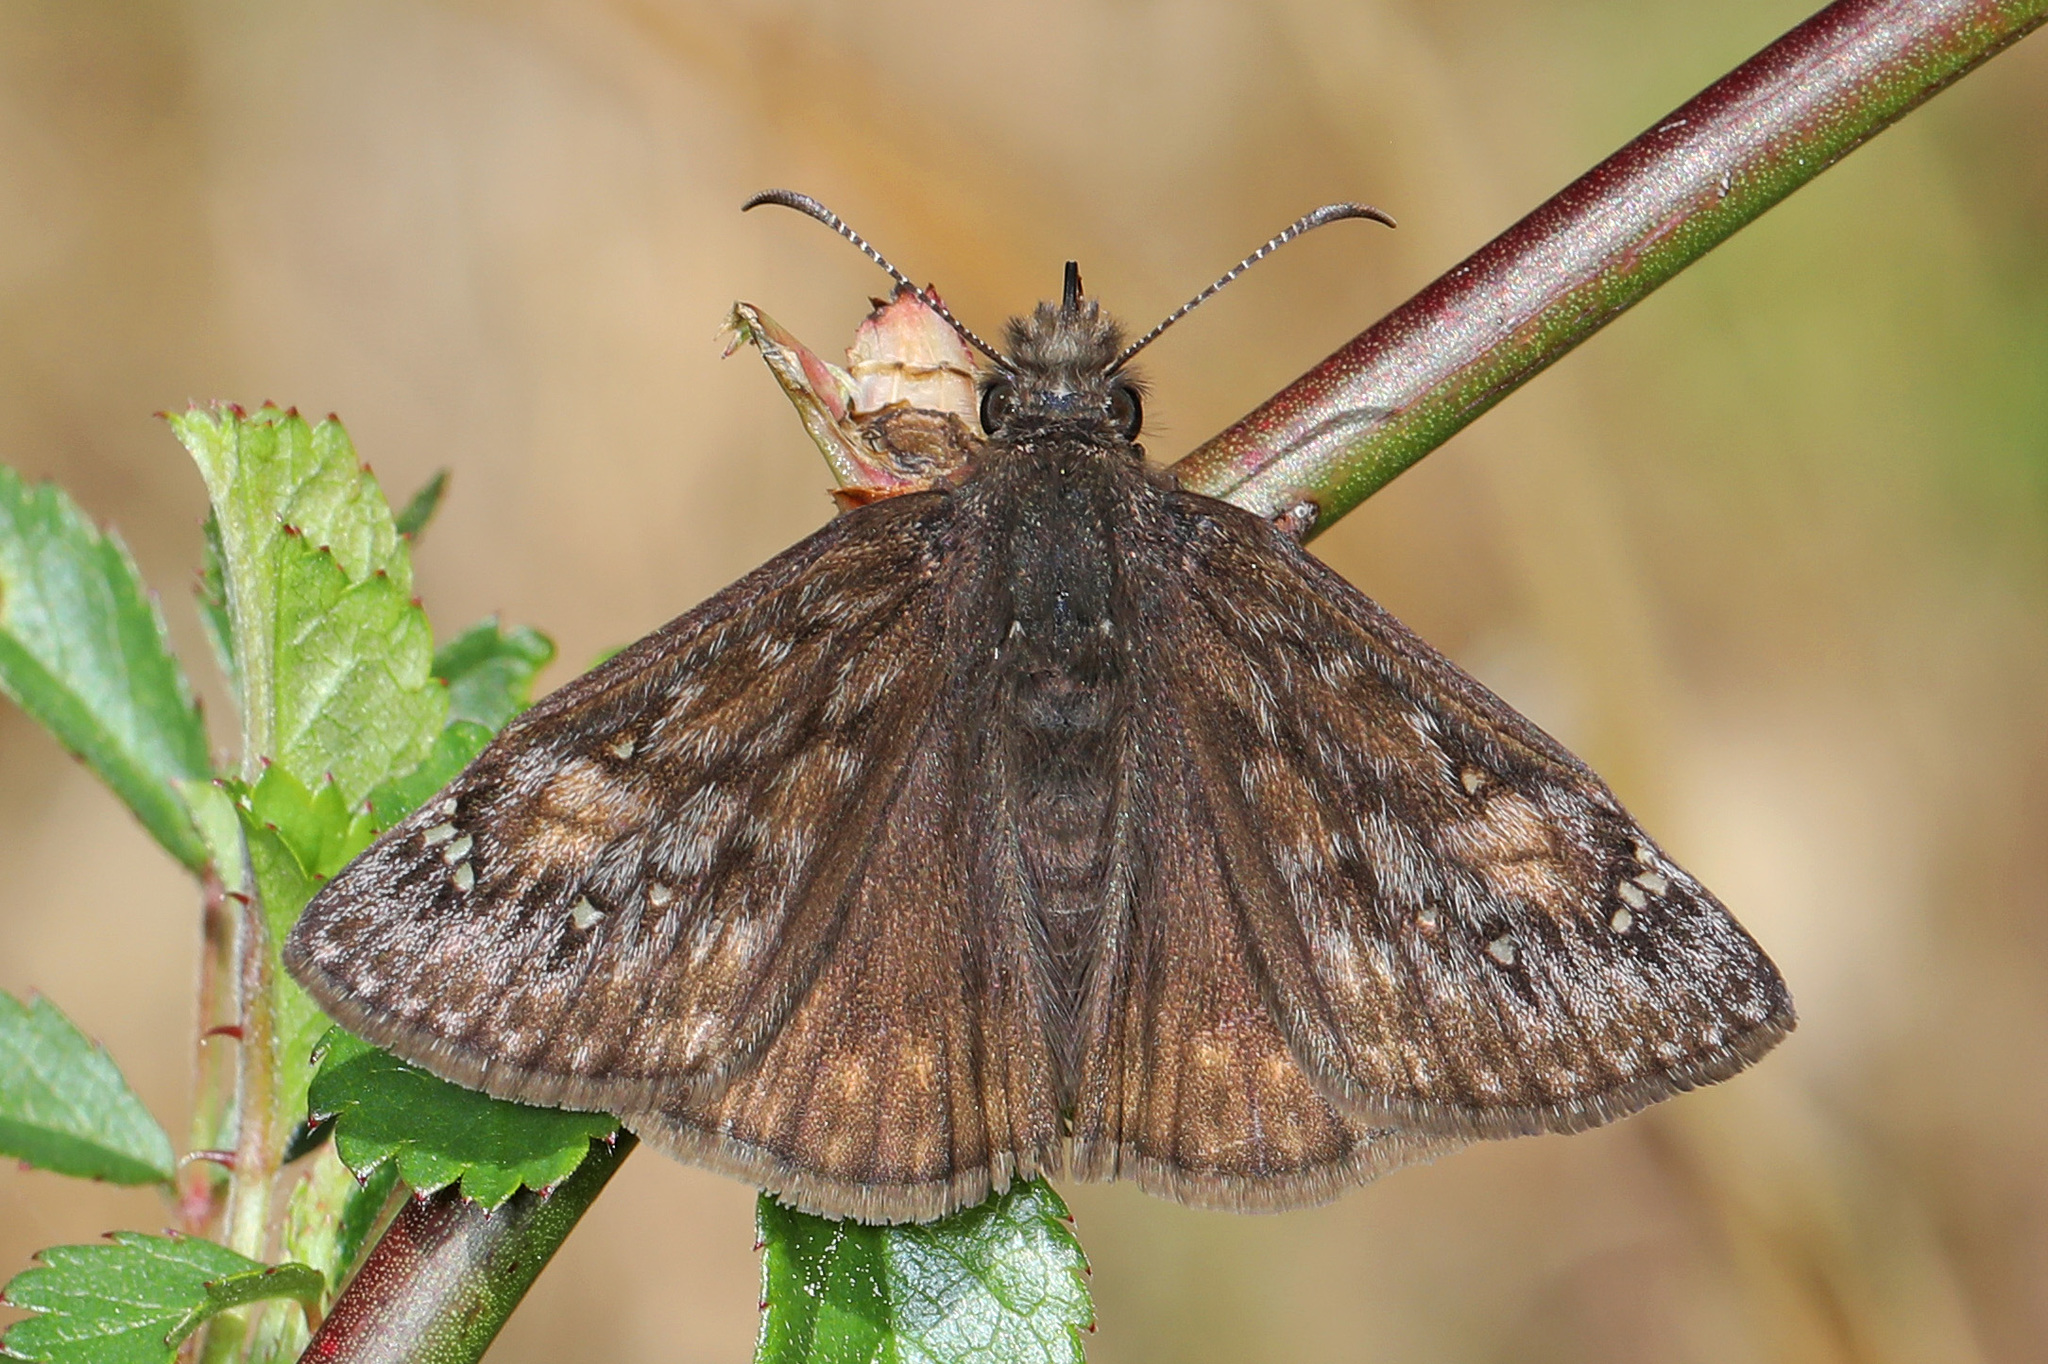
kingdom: Animalia
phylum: Arthropoda
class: Insecta
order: Lepidoptera
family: Hesperiidae
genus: Erynnis
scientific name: Erynnis juvenalis
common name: Juvenal's duskywing
